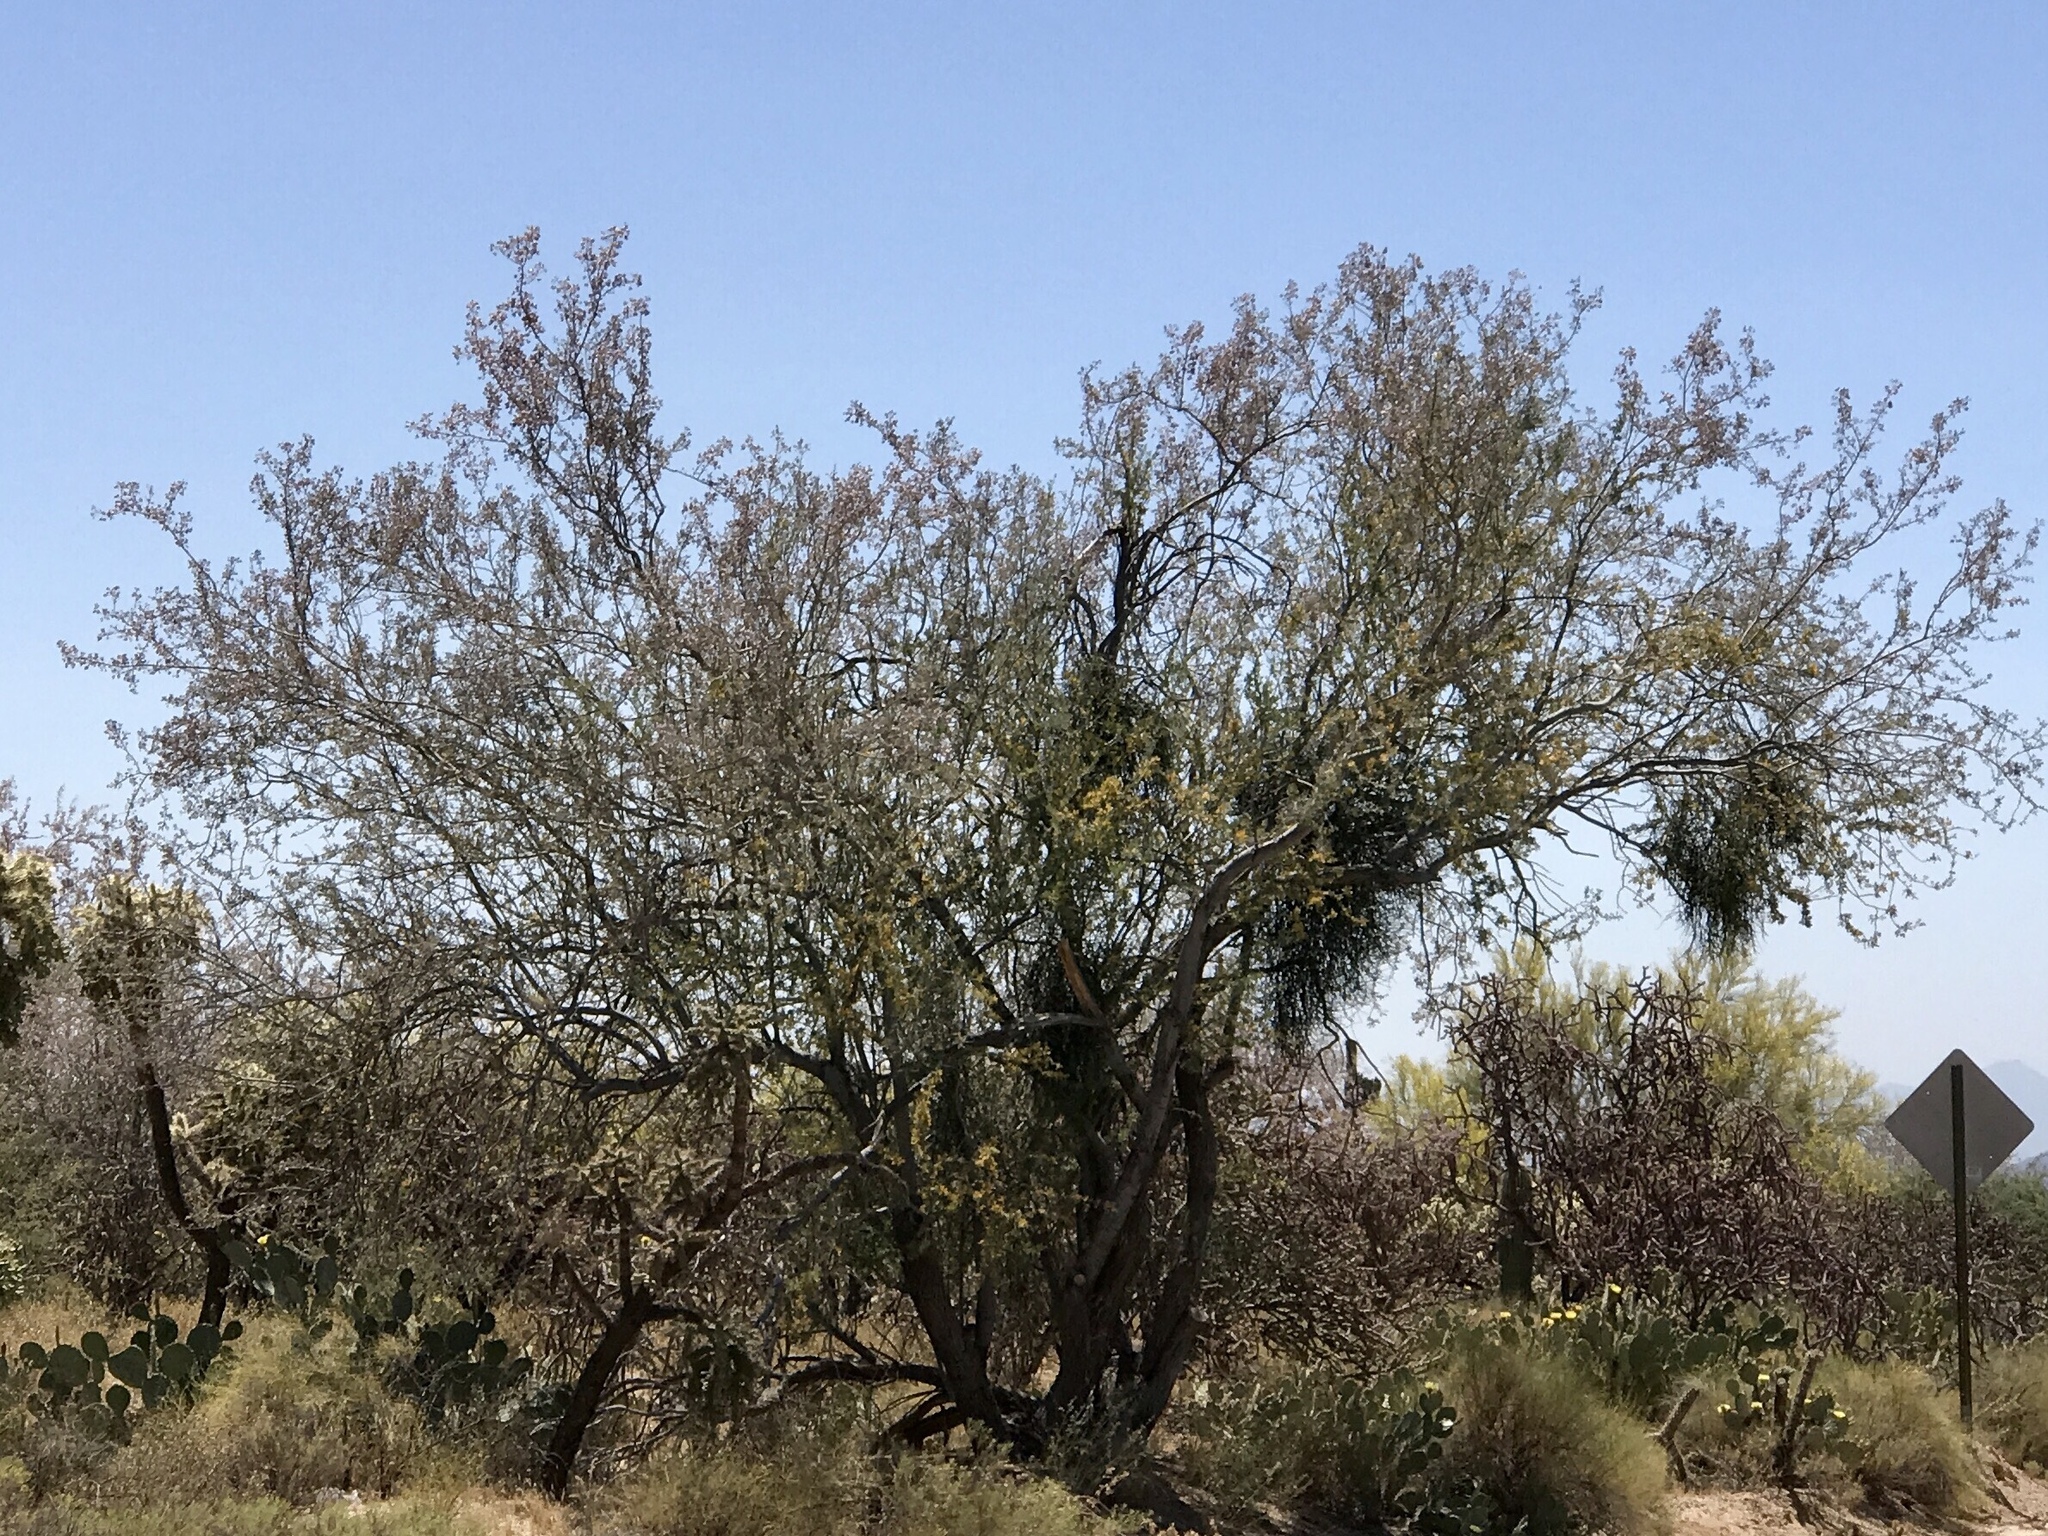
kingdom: Plantae
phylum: Tracheophyta
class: Magnoliopsida
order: Fabales
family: Fabaceae
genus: Olneya
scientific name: Olneya tesota
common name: Desert ironwood
